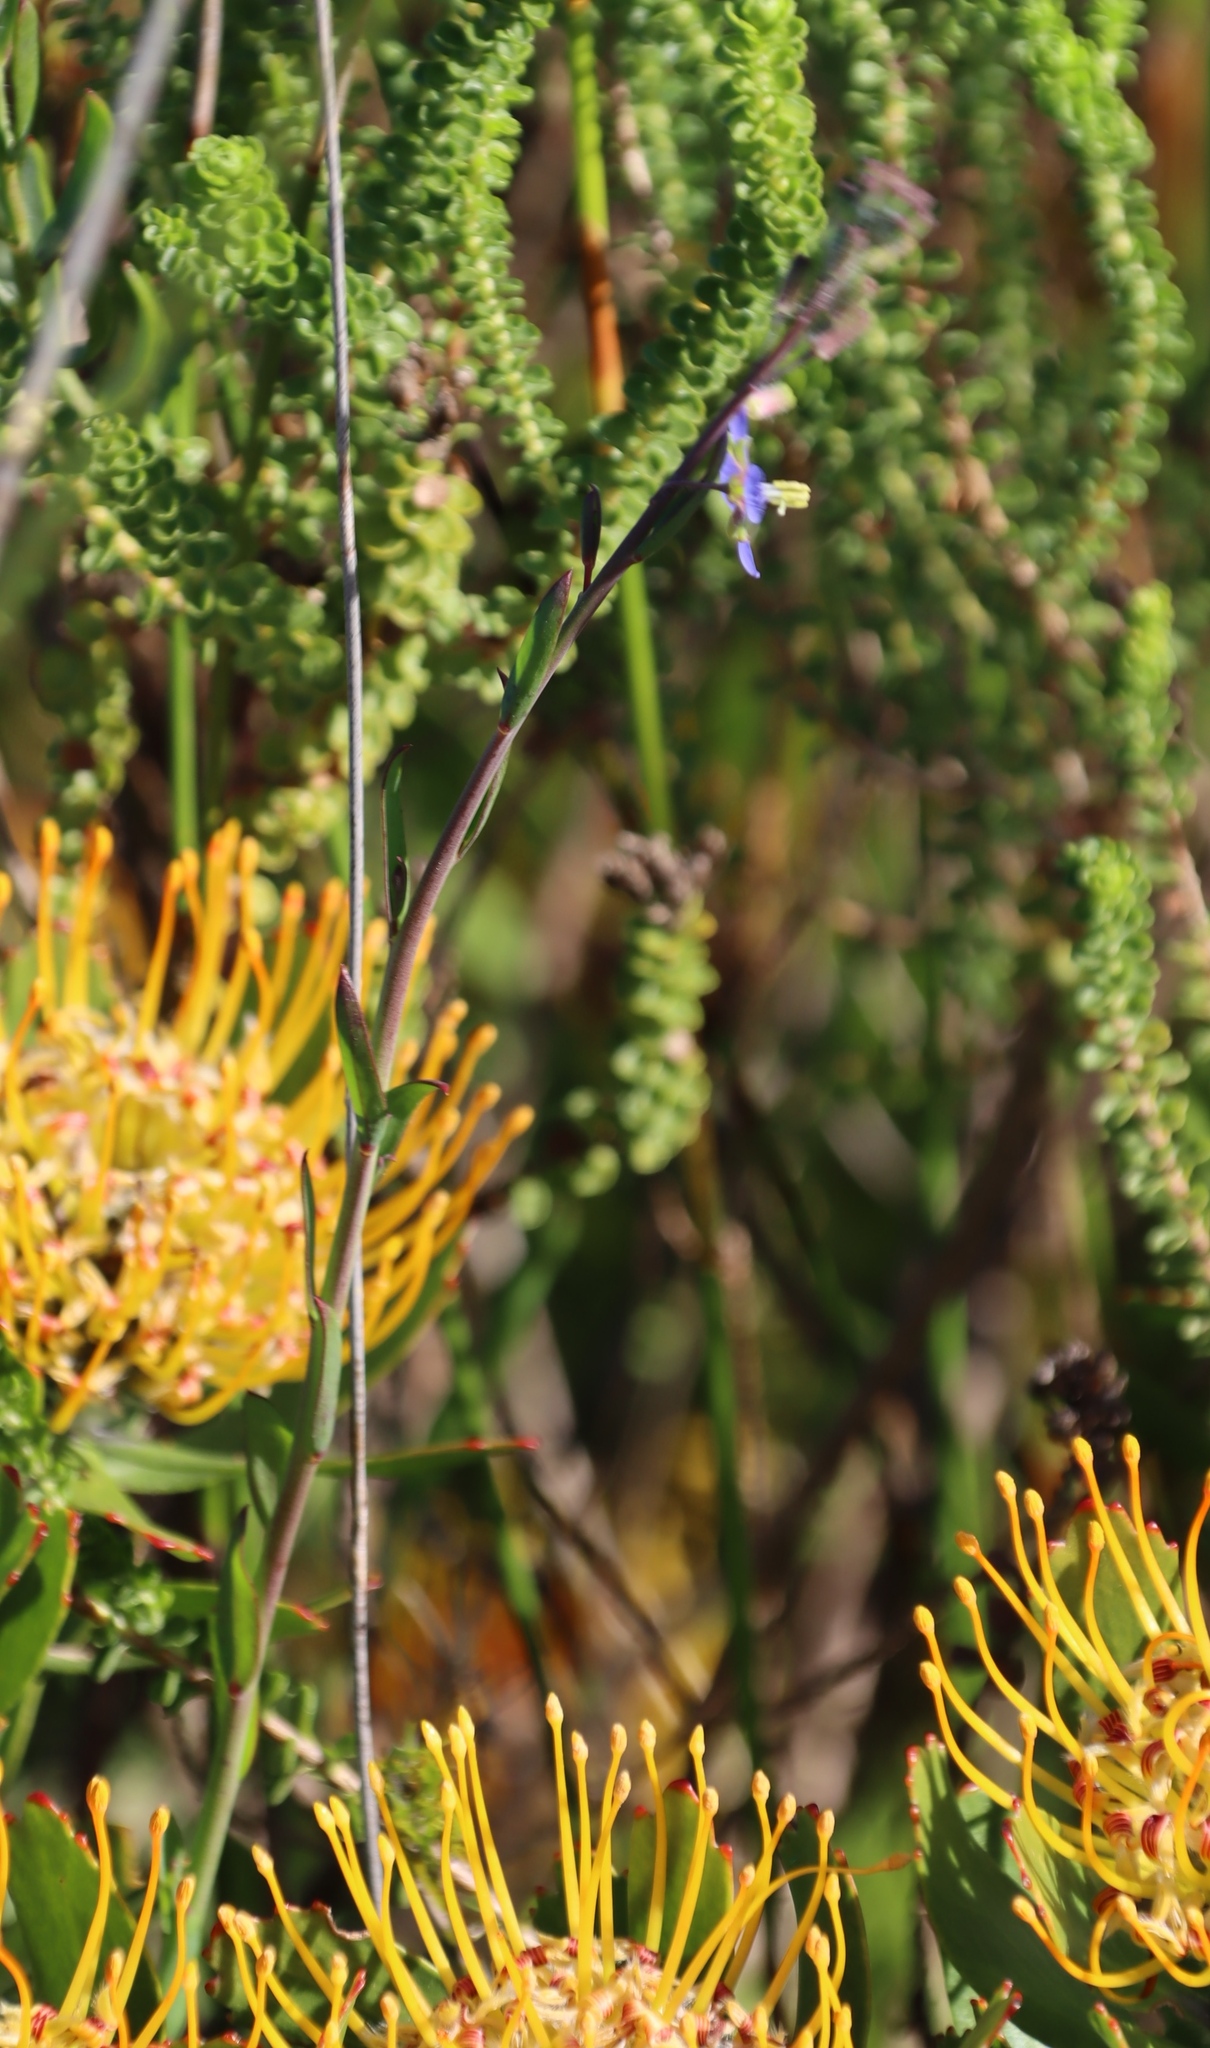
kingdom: Plantae
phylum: Tracheophyta
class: Magnoliopsida
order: Brassicales
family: Brassicaceae
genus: Heliophila
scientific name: Heliophila linearis
